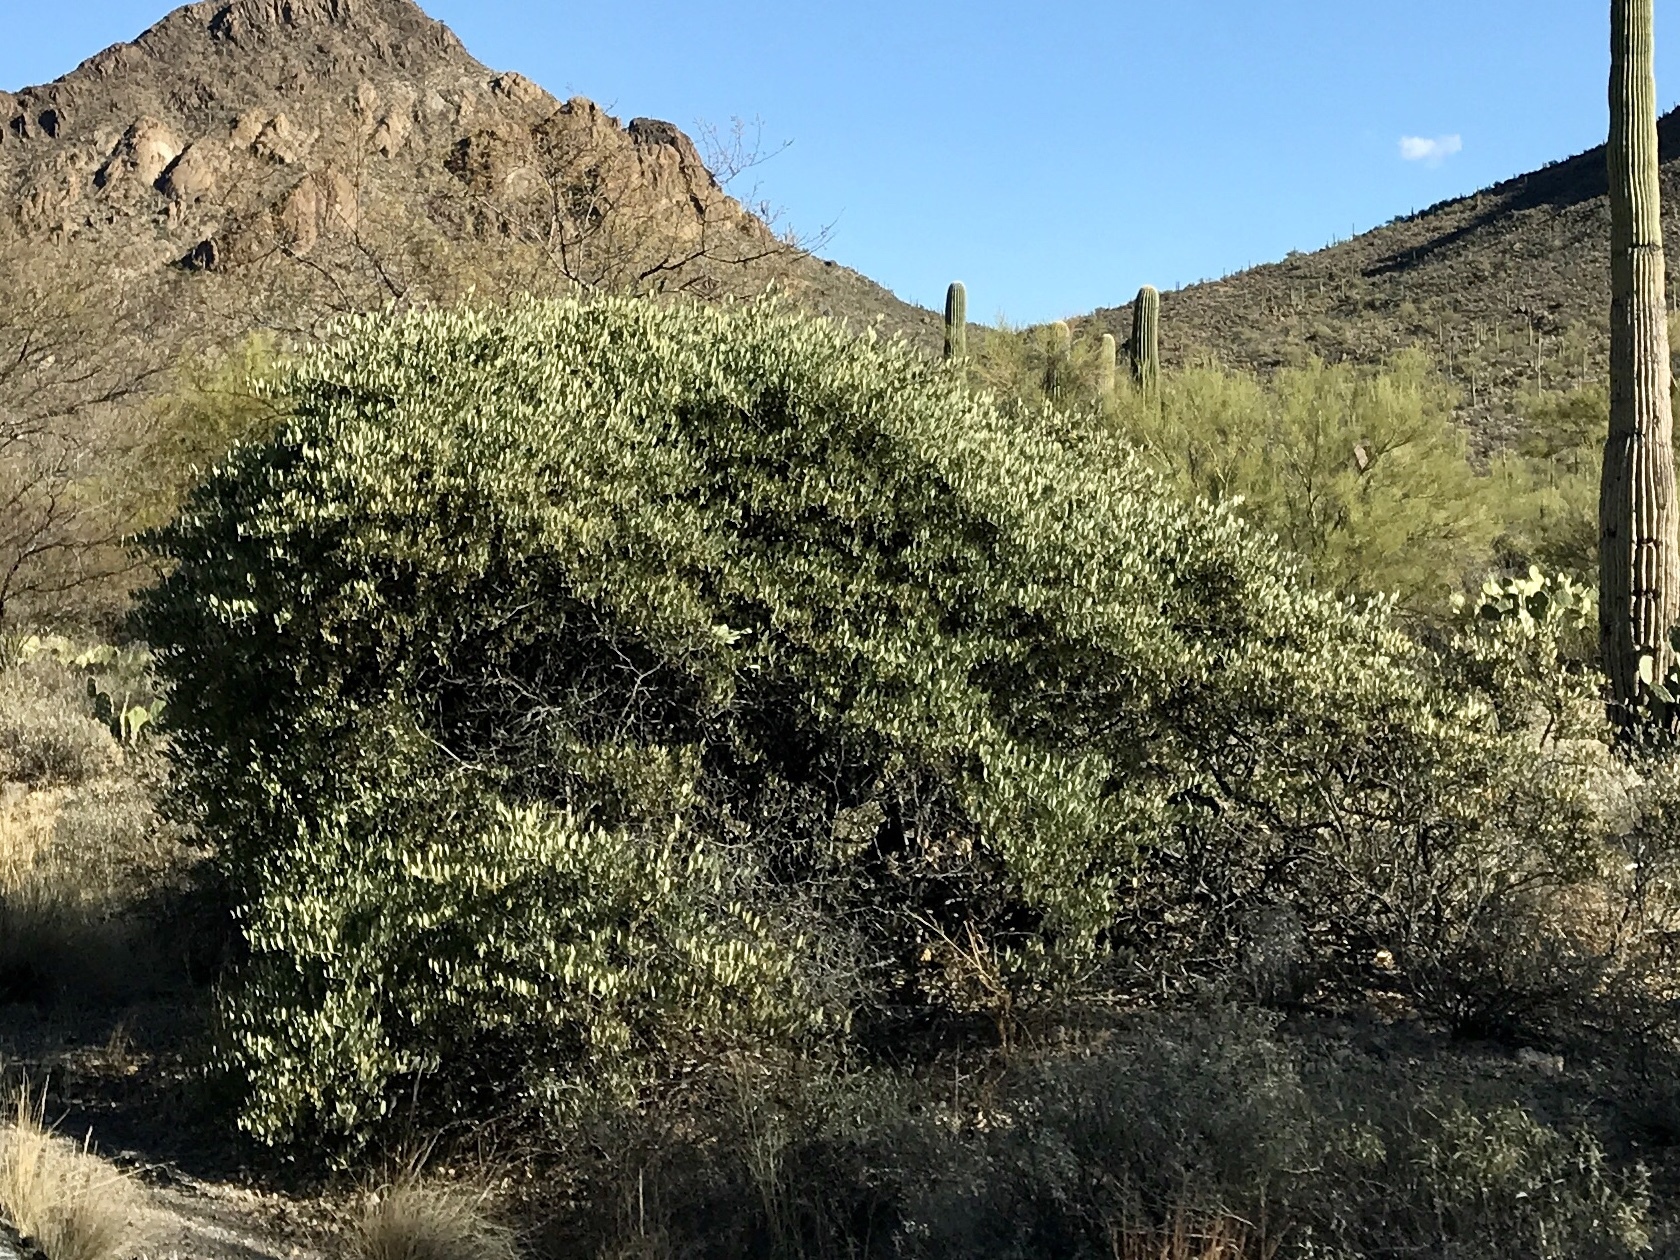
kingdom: Plantae
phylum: Tracheophyta
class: Magnoliopsida
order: Caryophyllales
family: Simmondsiaceae
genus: Simmondsia
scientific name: Simmondsia chinensis
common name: Jojoba
